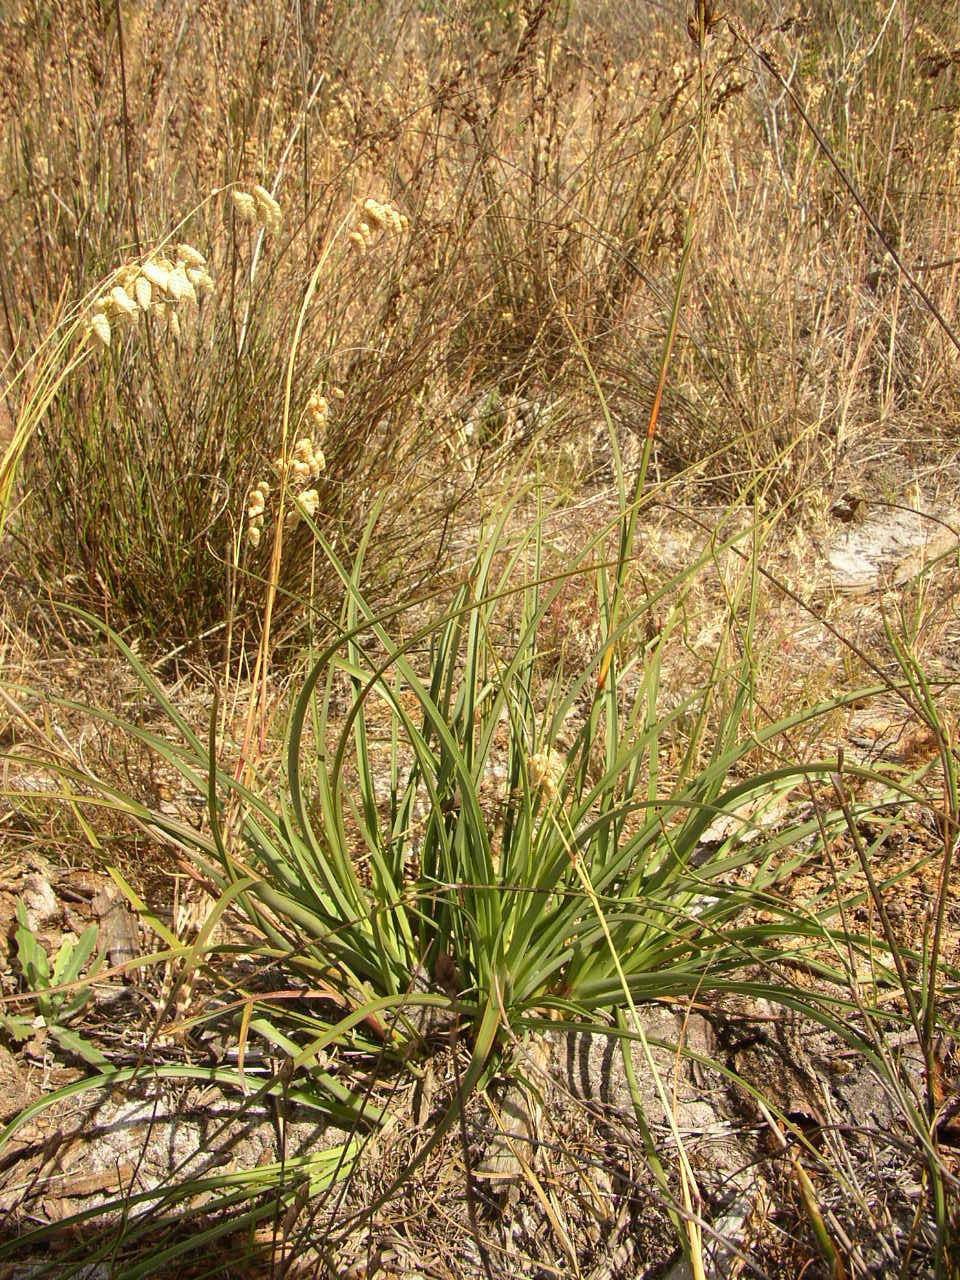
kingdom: Plantae
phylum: Tracheophyta
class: Liliopsida
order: Poales
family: Cyperaceae
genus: Tetraria
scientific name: Tetraria eximia
